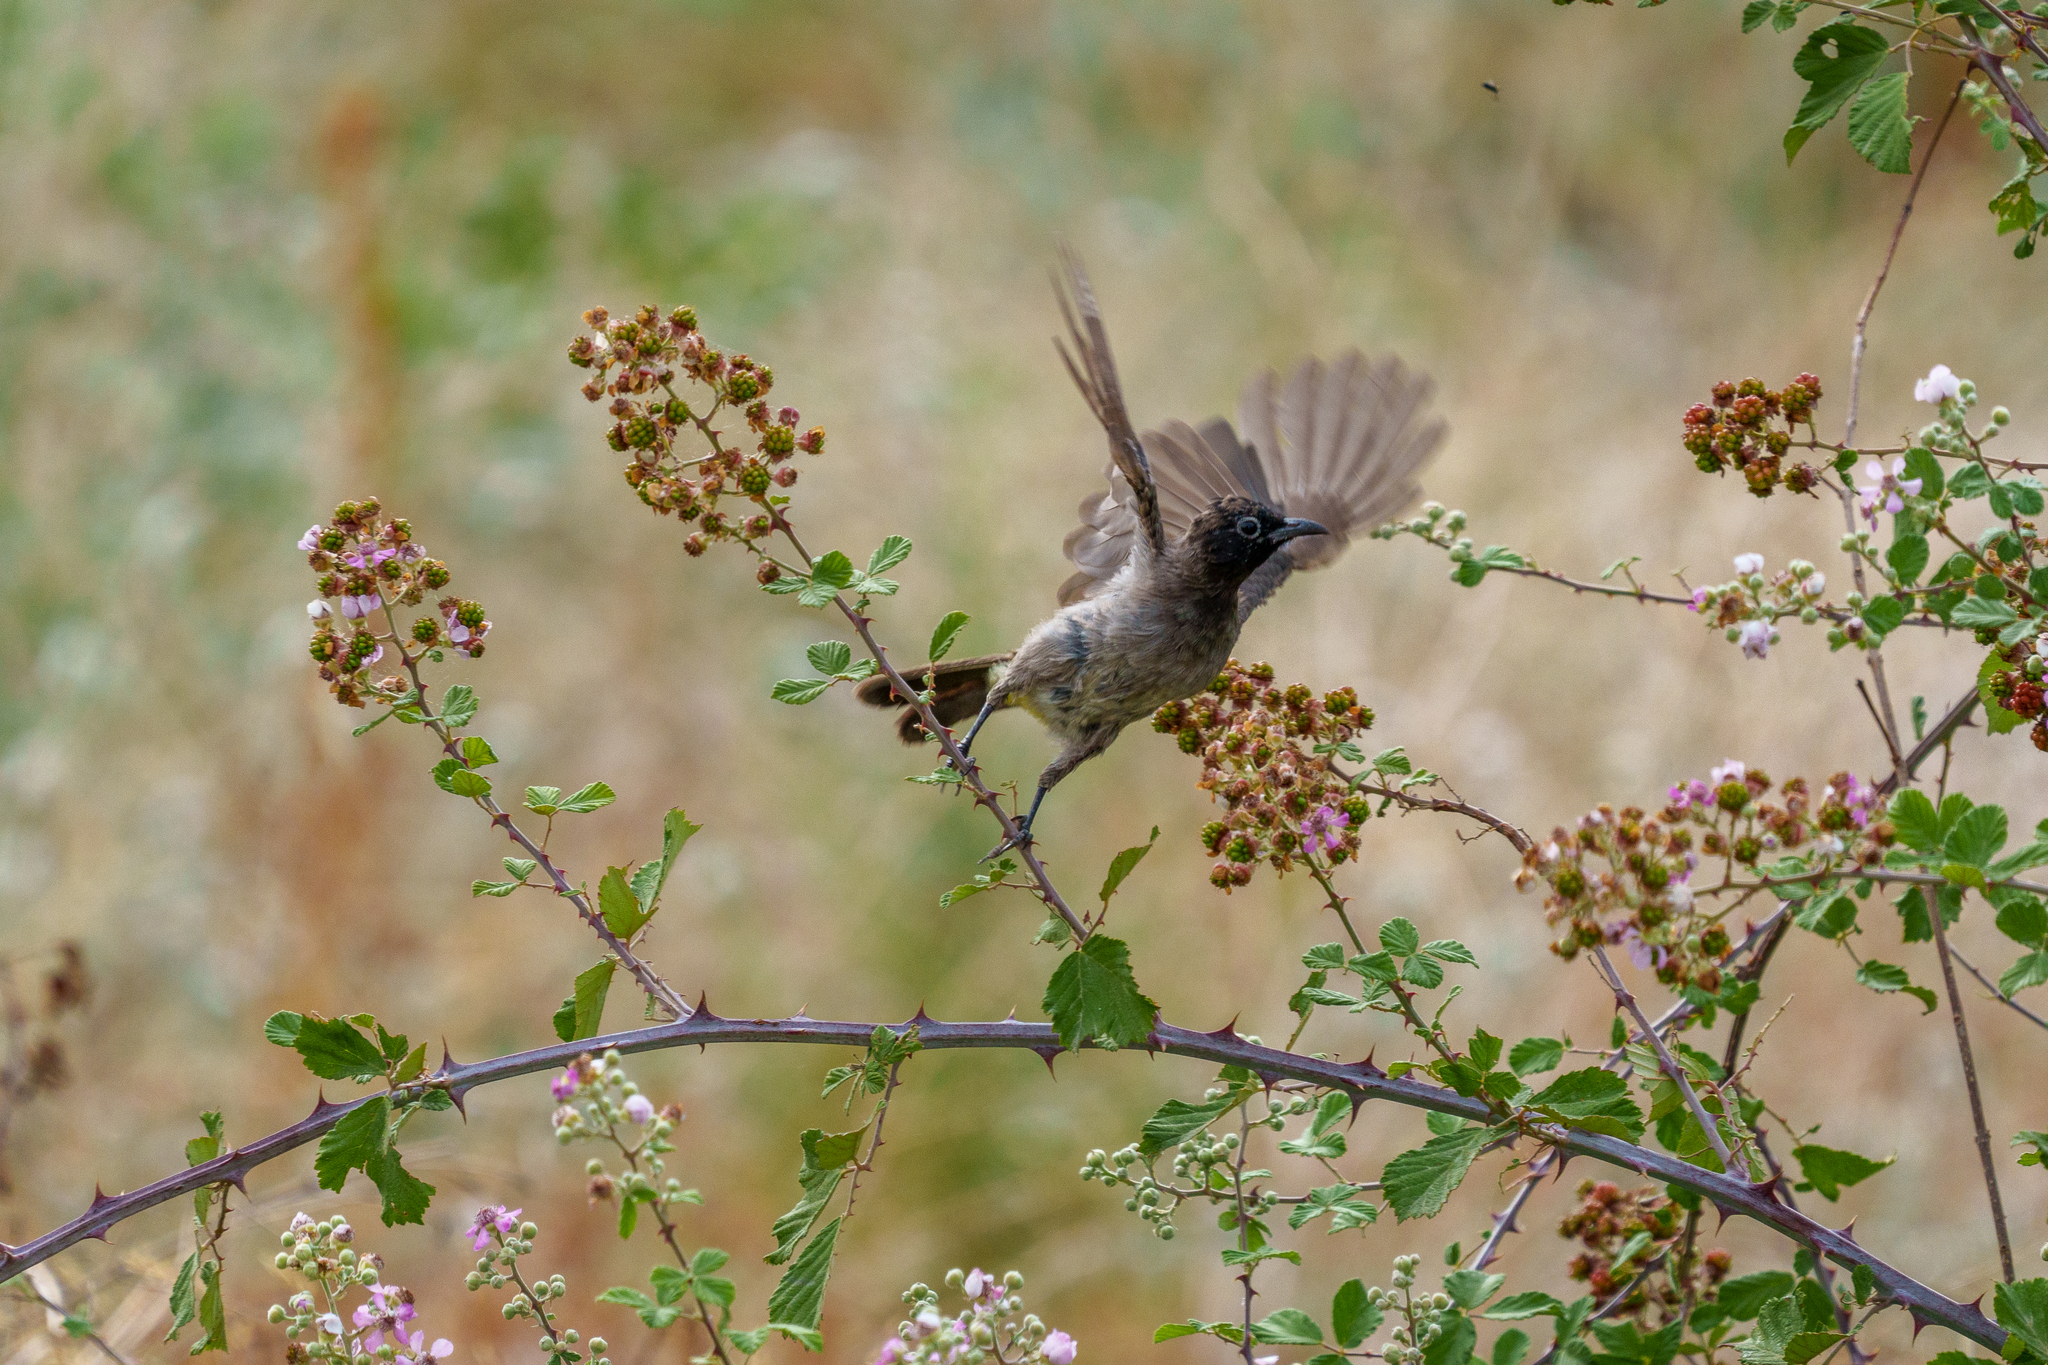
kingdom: Animalia
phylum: Chordata
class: Aves
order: Passeriformes
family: Pycnonotidae
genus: Pycnonotus
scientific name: Pycnonotus xanthopygos
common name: White-spectacled bulbul
